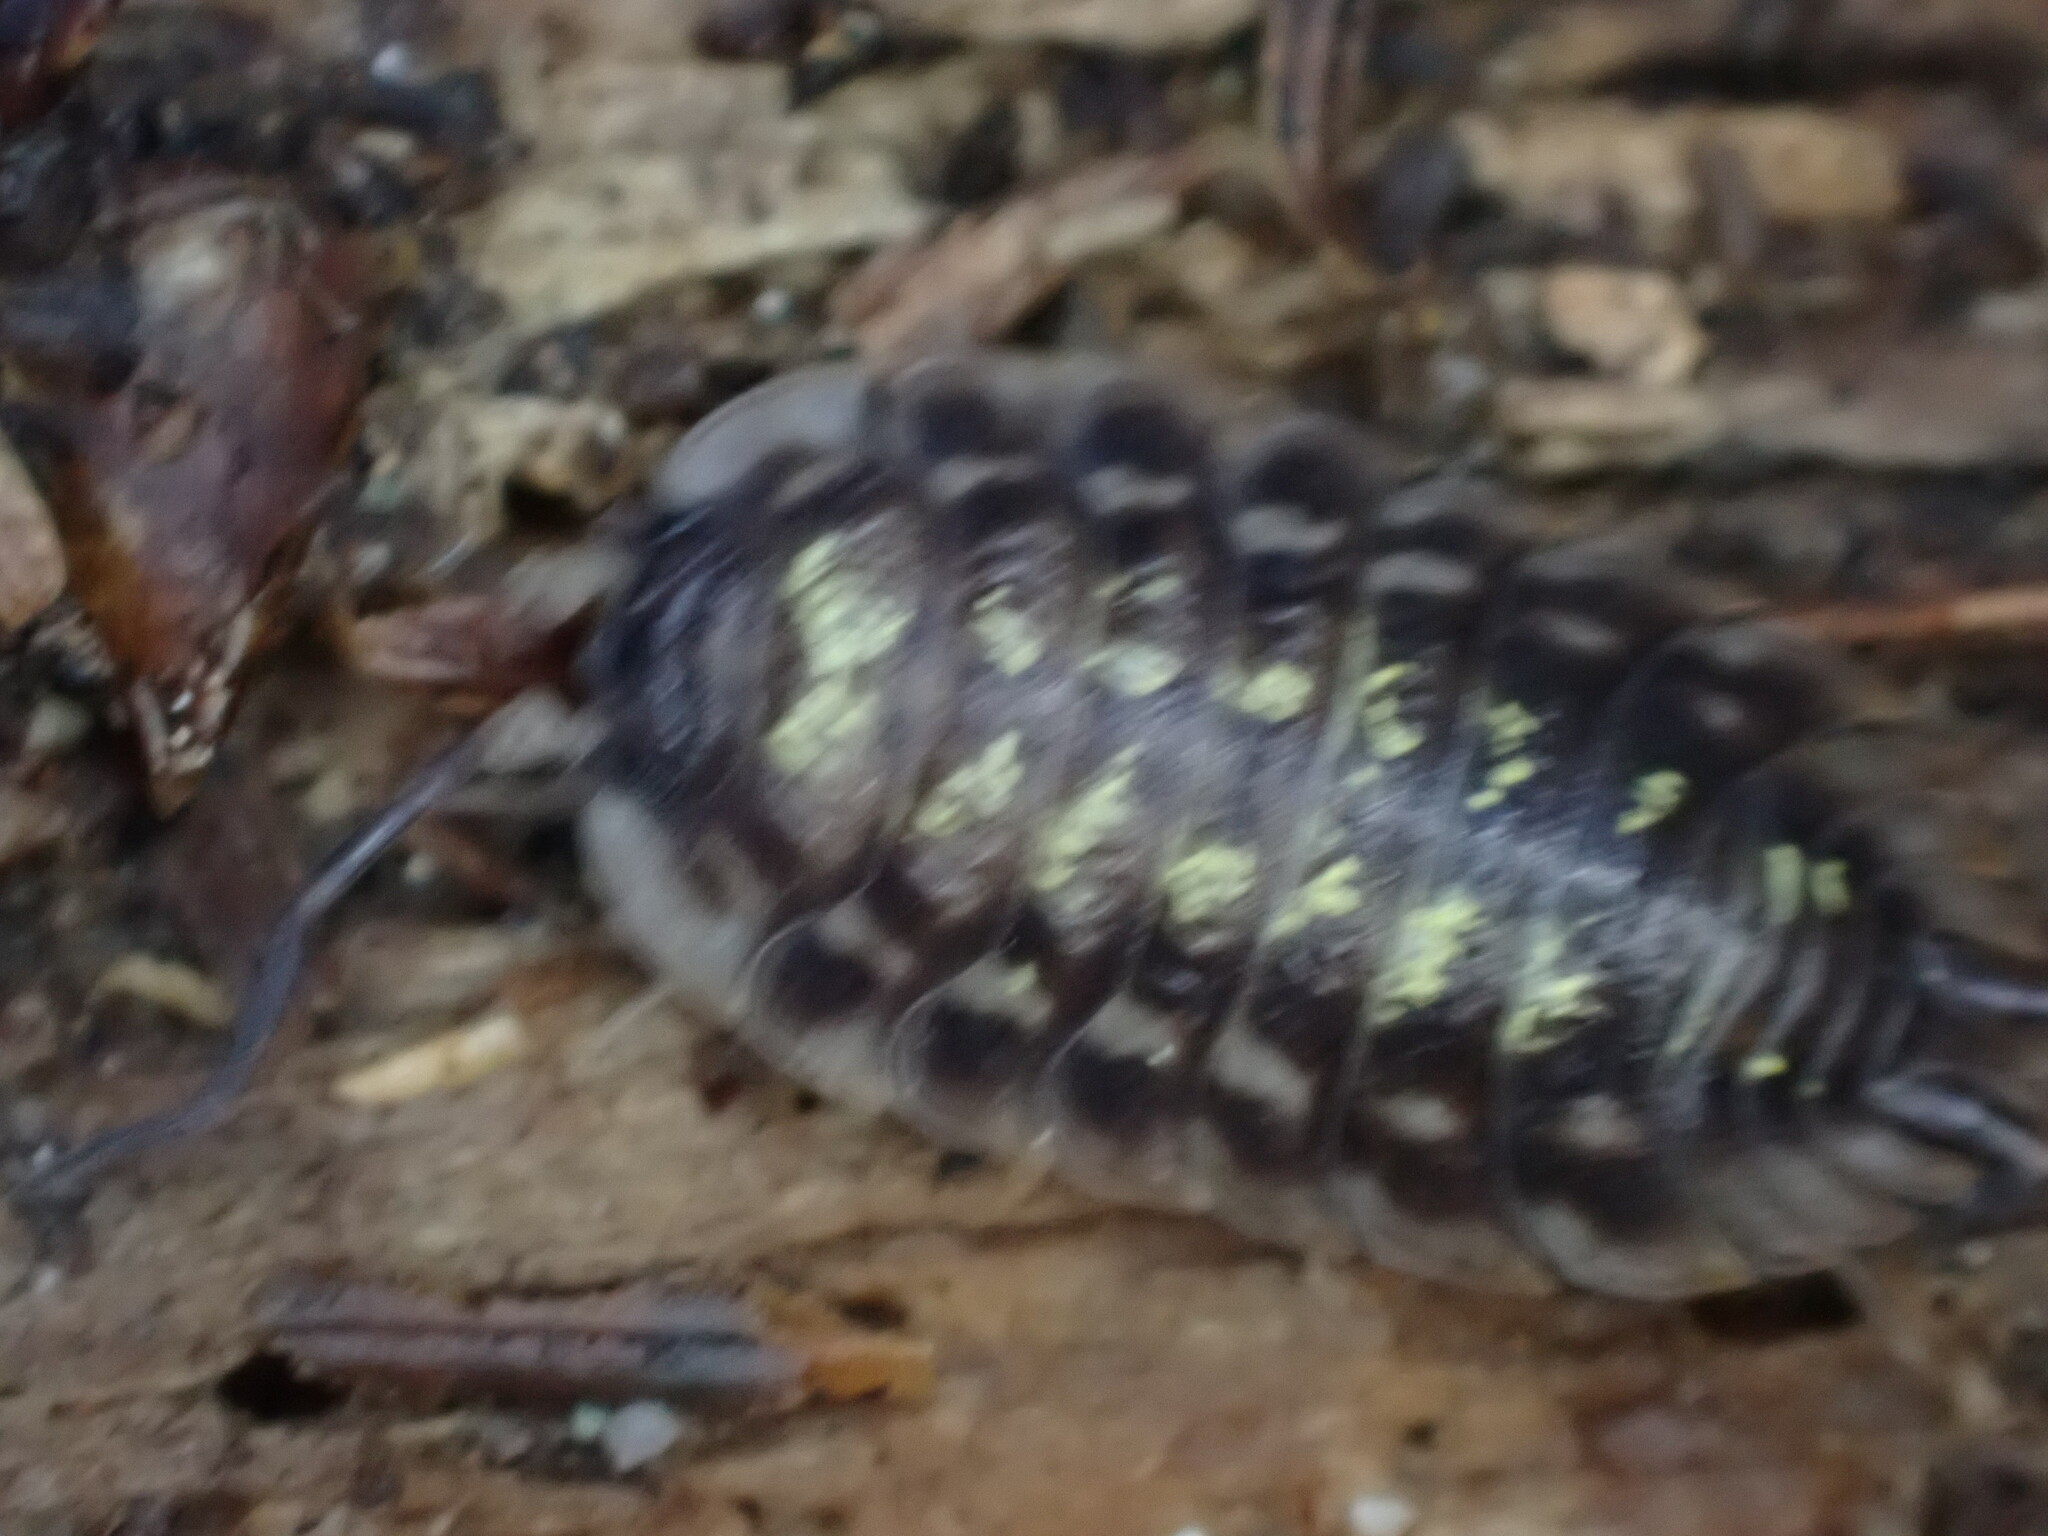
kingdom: Animalia
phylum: Arthropoda
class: Malacostraca
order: Isopoda
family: Oniscidae
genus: Oniscus
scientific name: Oniscus asellus
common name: Common shiny woodlouse
